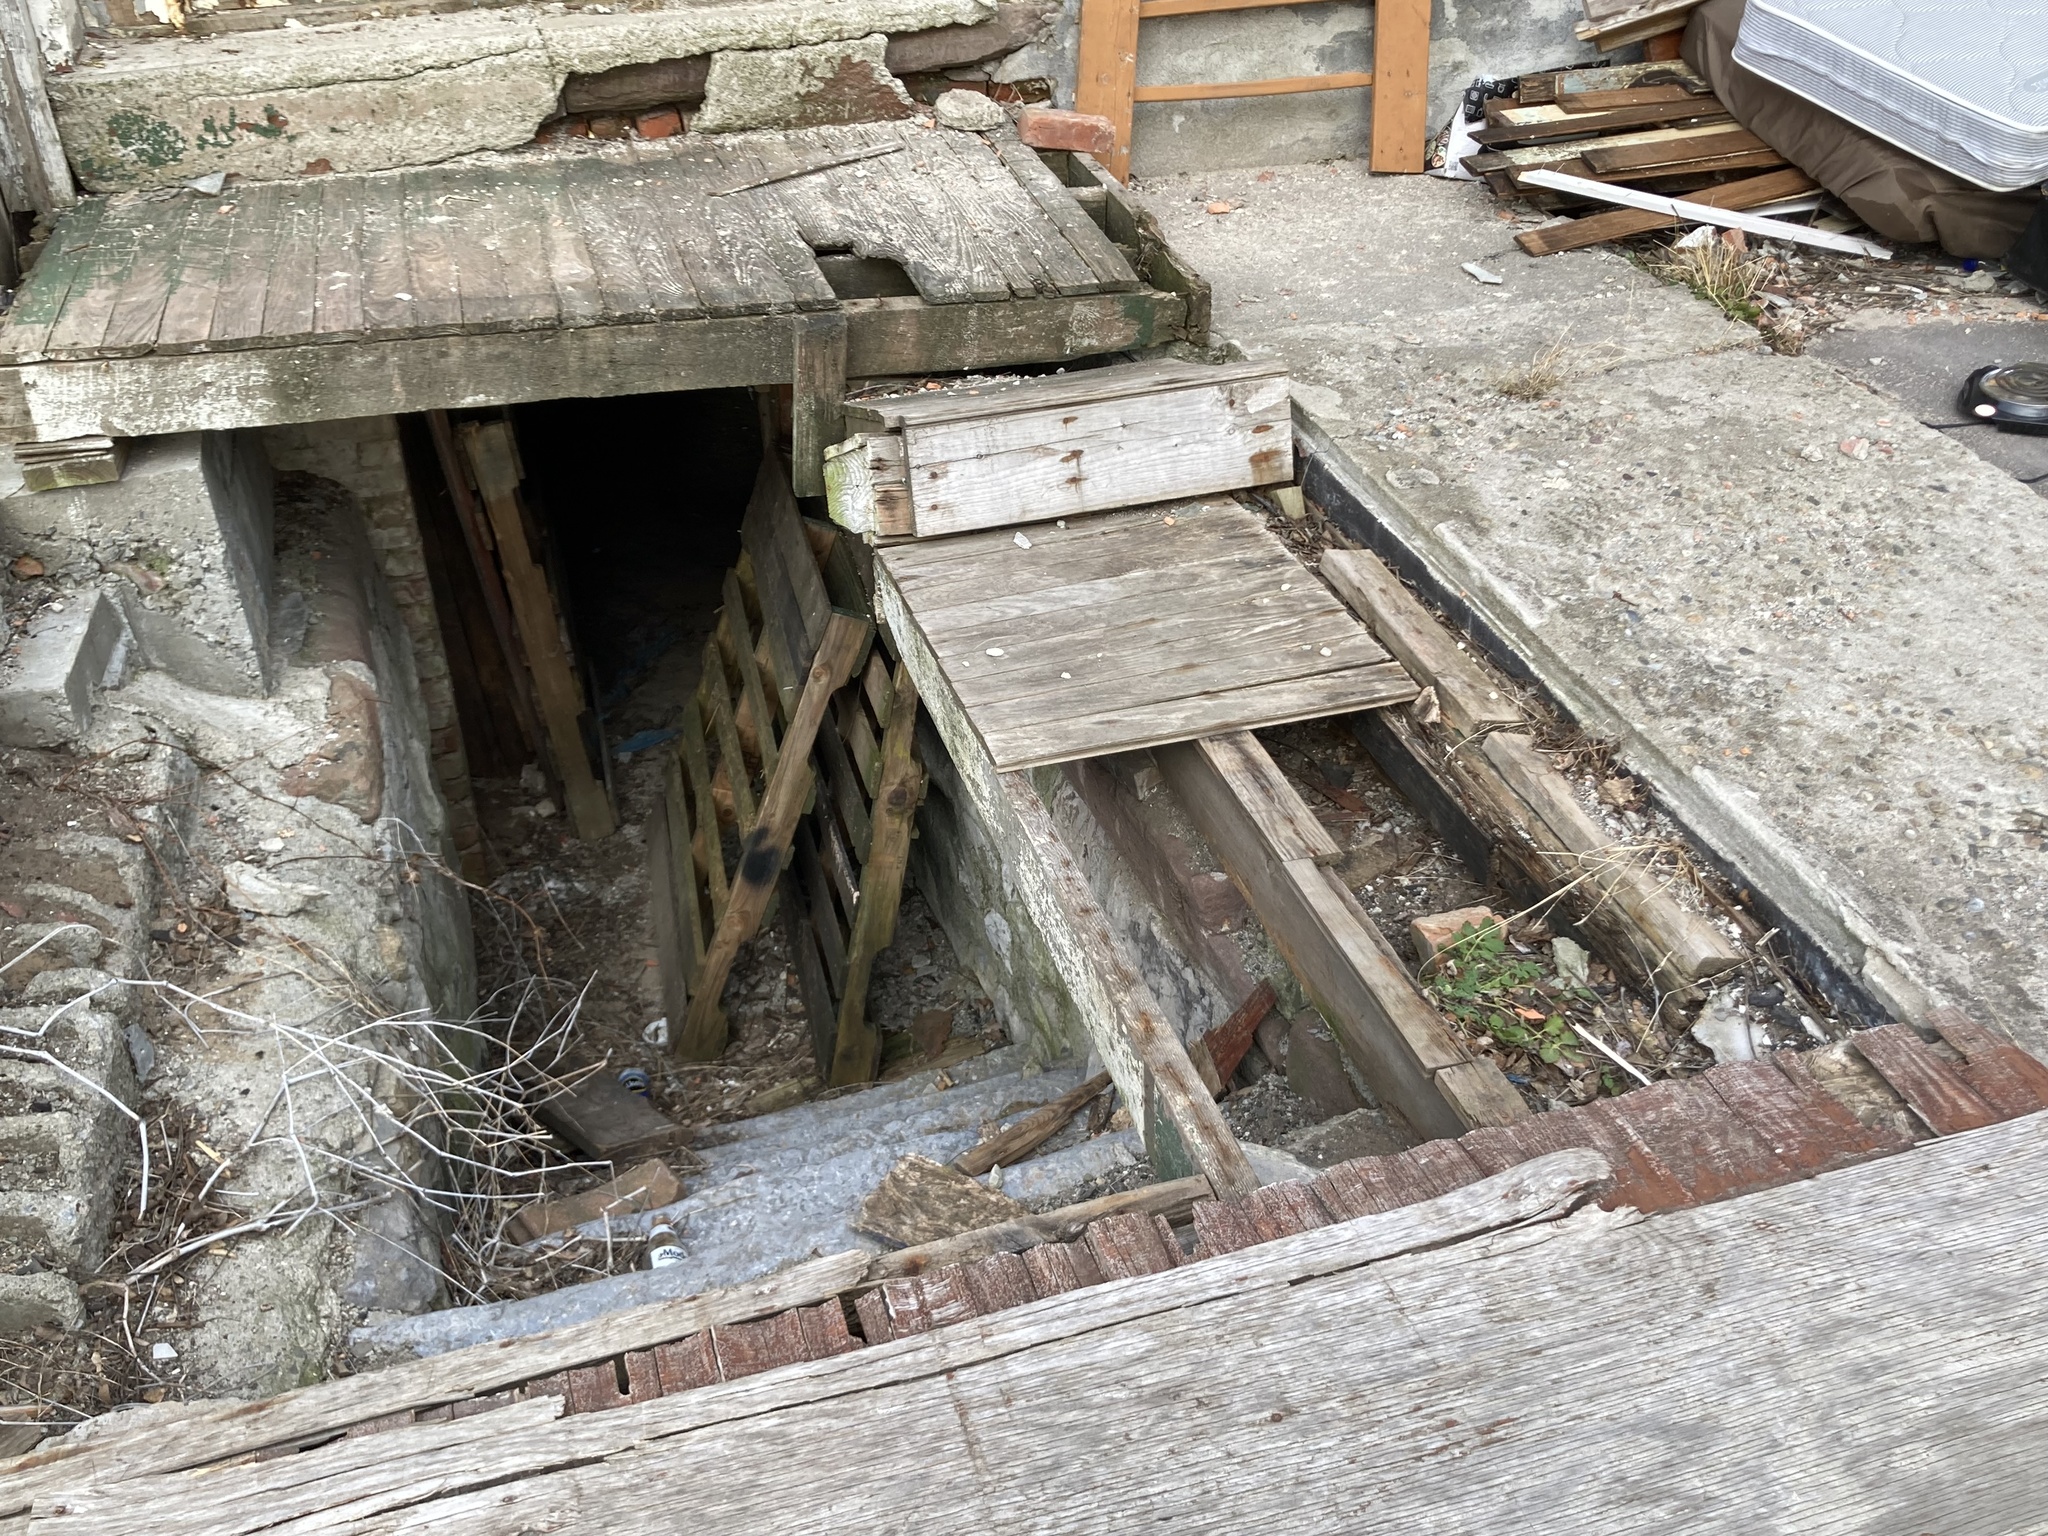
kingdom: Plantae
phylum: Tracheophyta
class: Magnoliopsida
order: Ranunculales
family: Papaveraceae
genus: Chelidonium
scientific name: Chelidonium majus
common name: Greater celandine
